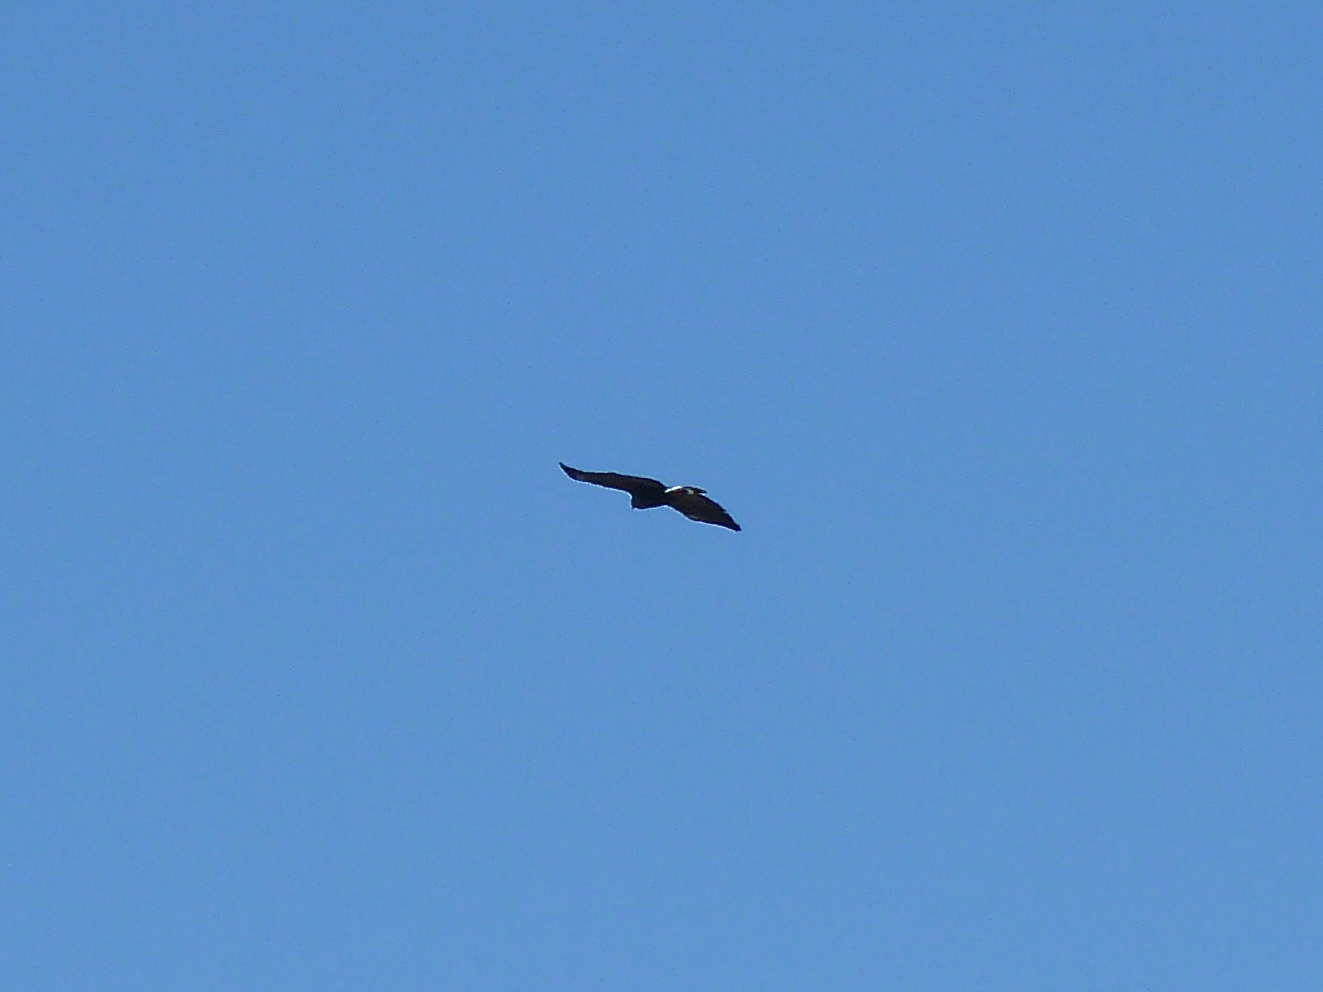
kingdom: Animalia
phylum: Chordata
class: Aves
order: Accipitriformes
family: Accipitridae
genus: Buteogallus
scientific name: Buteogallus anthracinus
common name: Common black hawk
